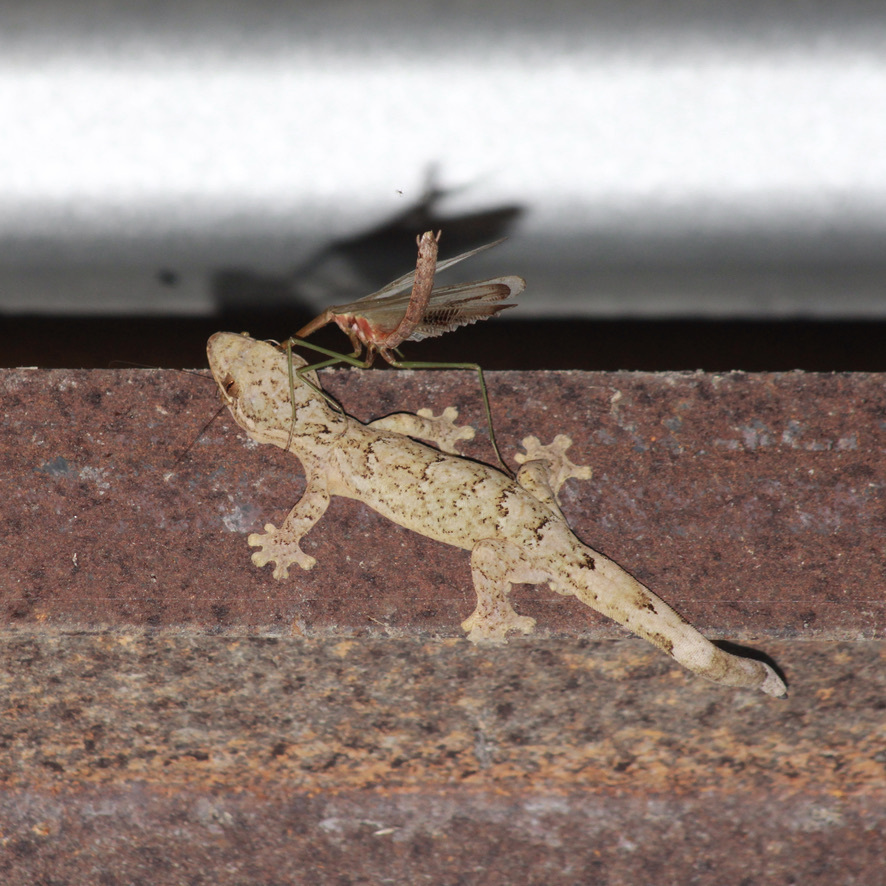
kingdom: Animalia
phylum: Chordata
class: Squamata
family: Phyllodactylidae
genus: Thecadactylus
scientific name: Thecadactylus rapicauda
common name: Turnip-tailed gecko
